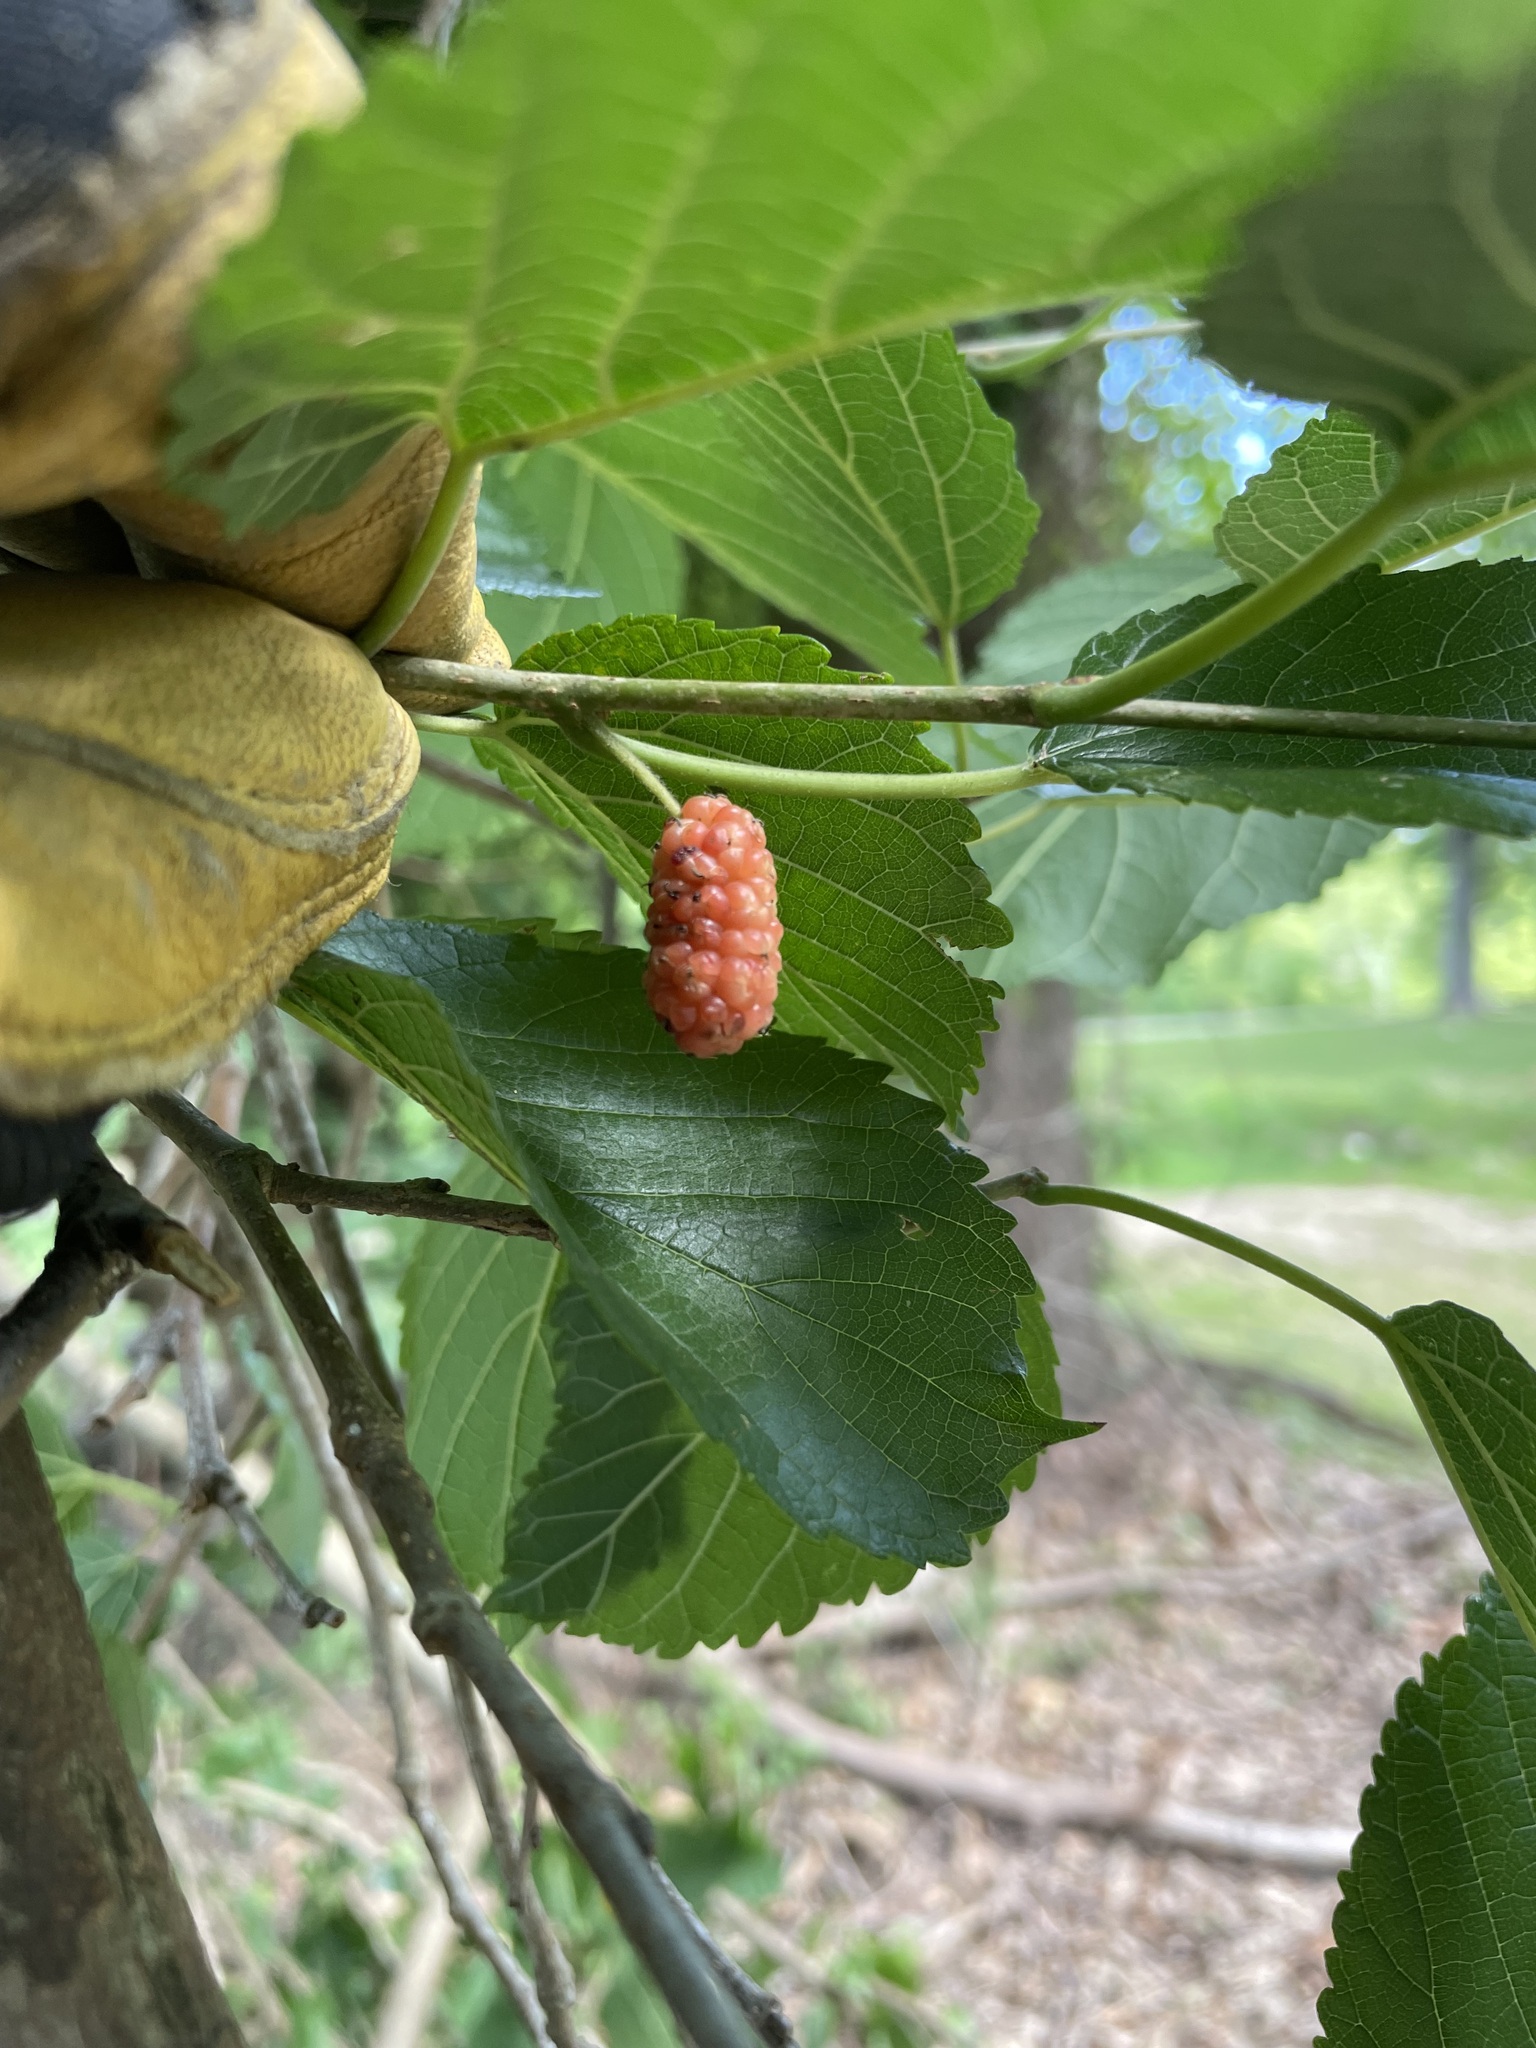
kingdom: Plantae
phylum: Tracheophyta
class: Magnoliopsida
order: Rosales
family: Moraceae
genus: Morus
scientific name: Morus rubra
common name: Red mulberry
